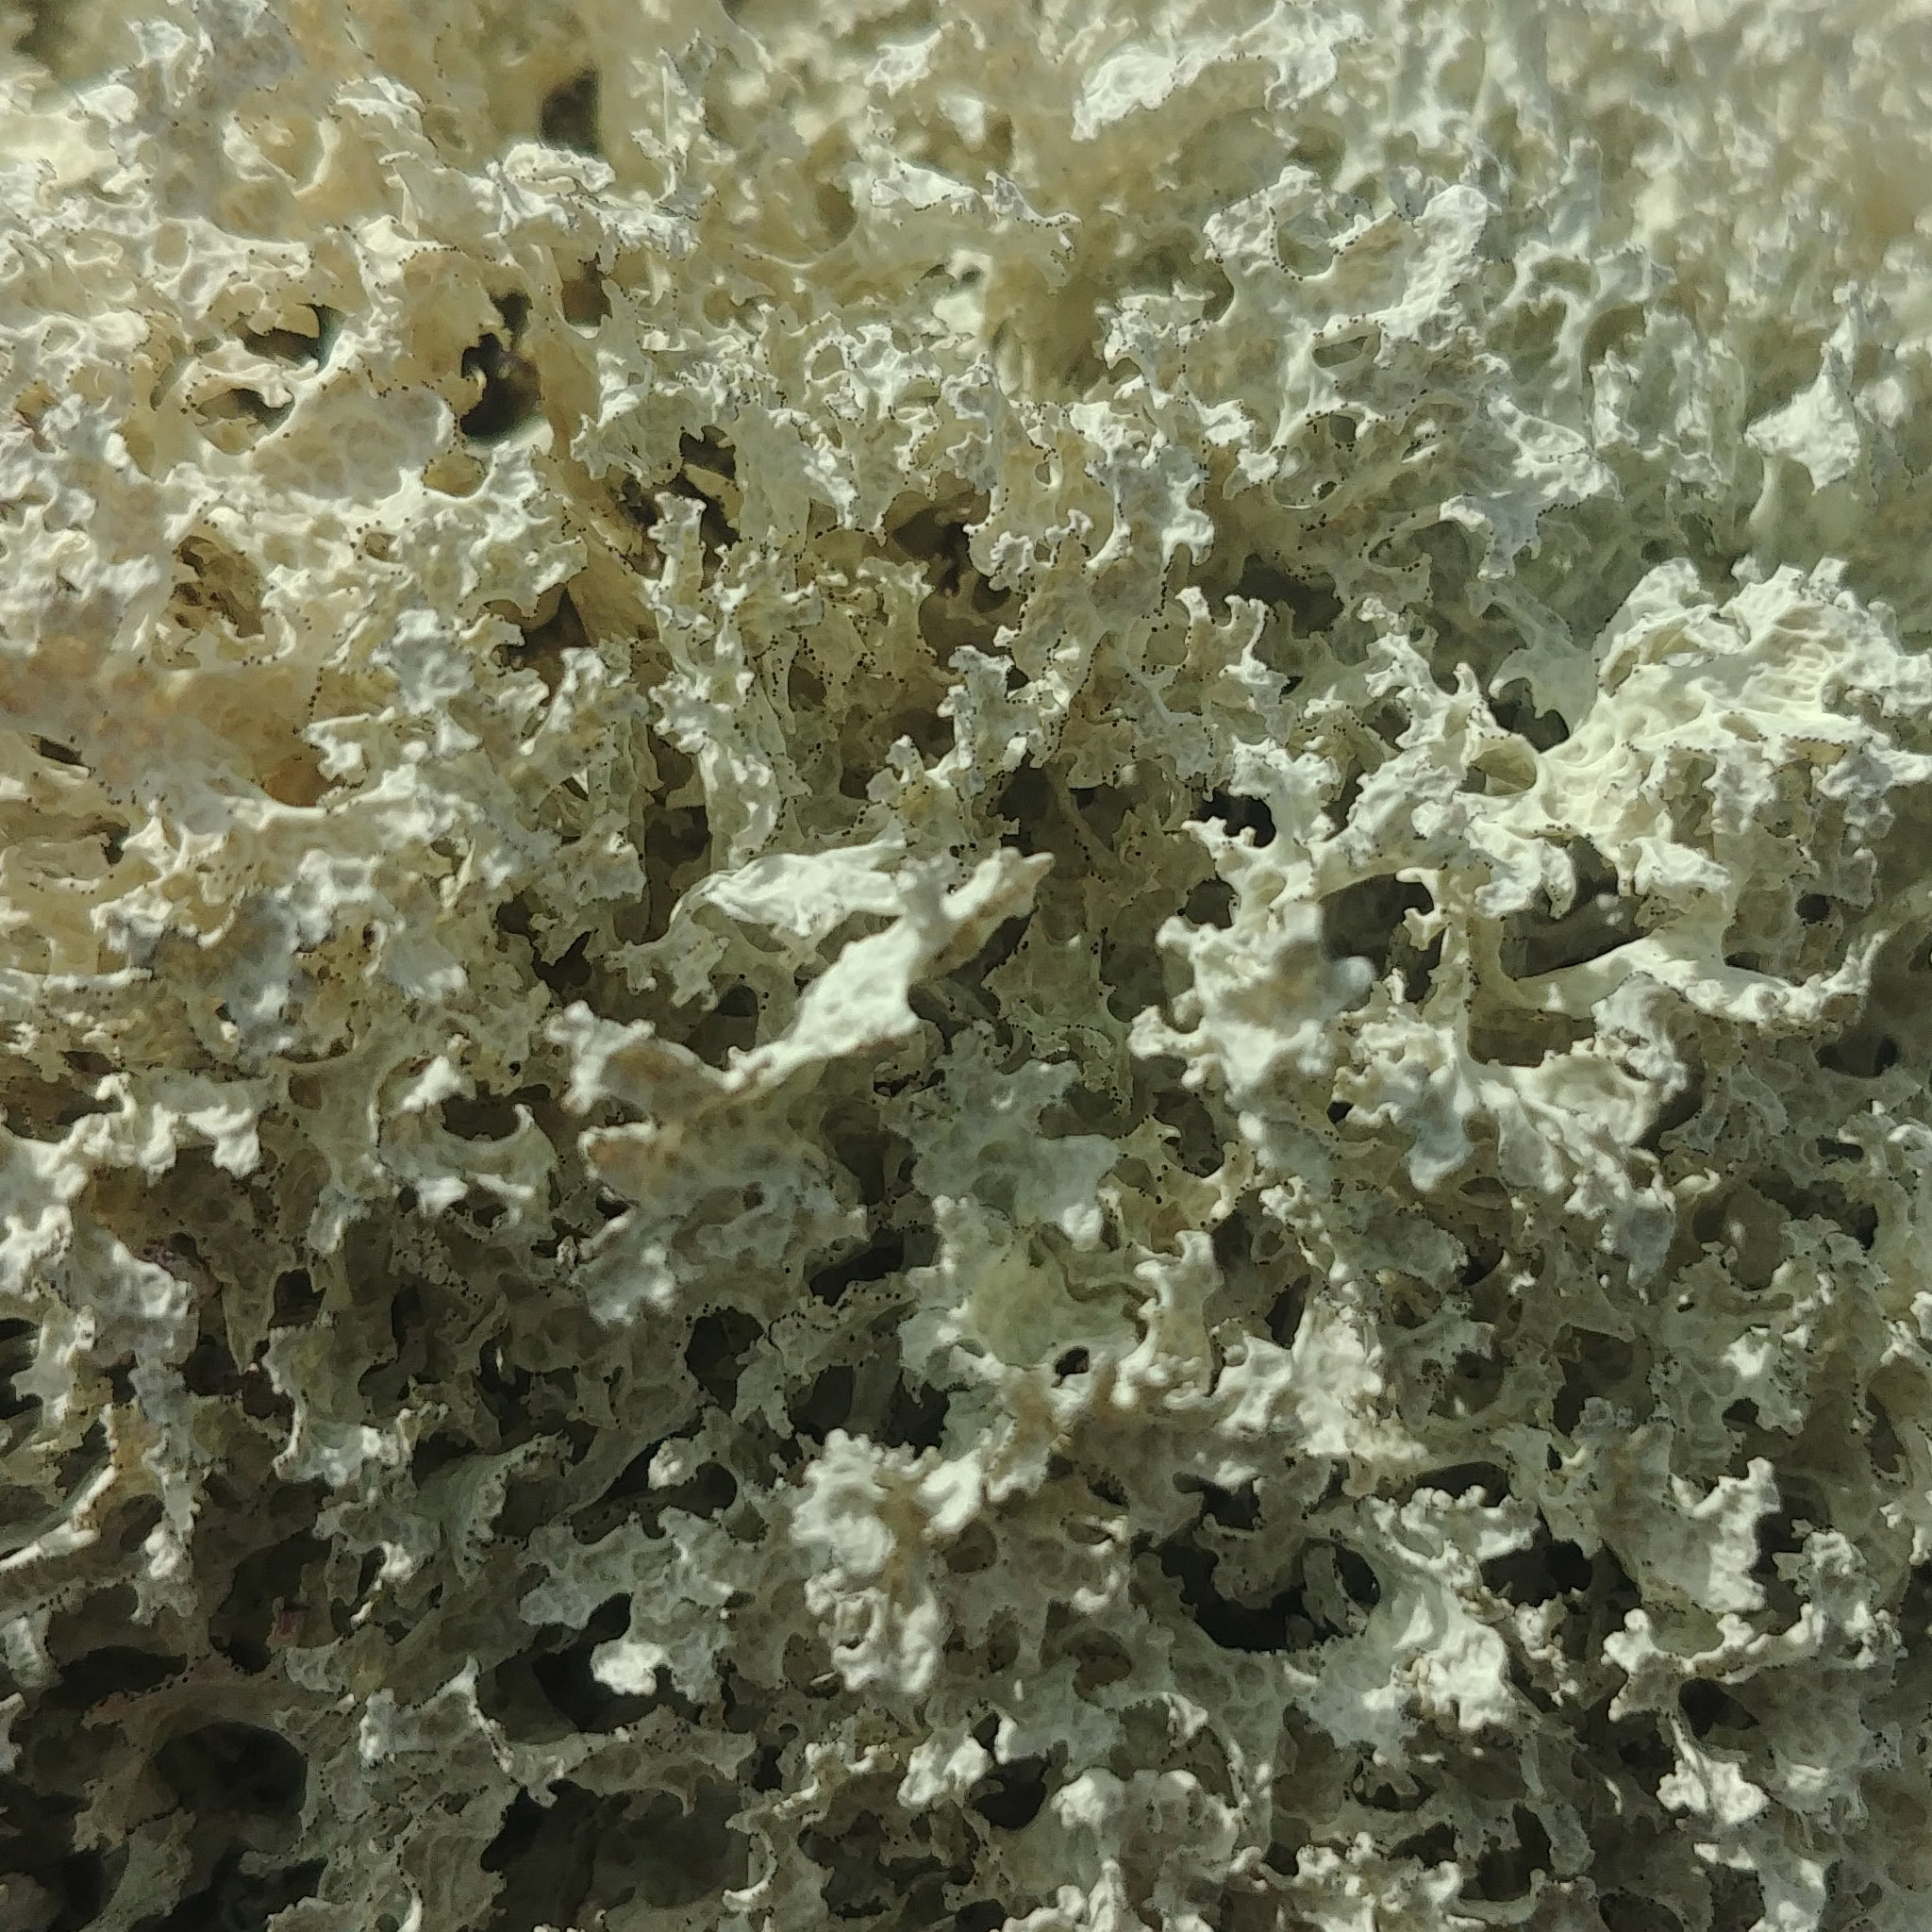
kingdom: Fungi
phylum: Ascomycota
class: Lecanoromycetes
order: Lecanorales
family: Parmeliaceae
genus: Nephromopsis
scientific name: Nephromopsis nivalis
